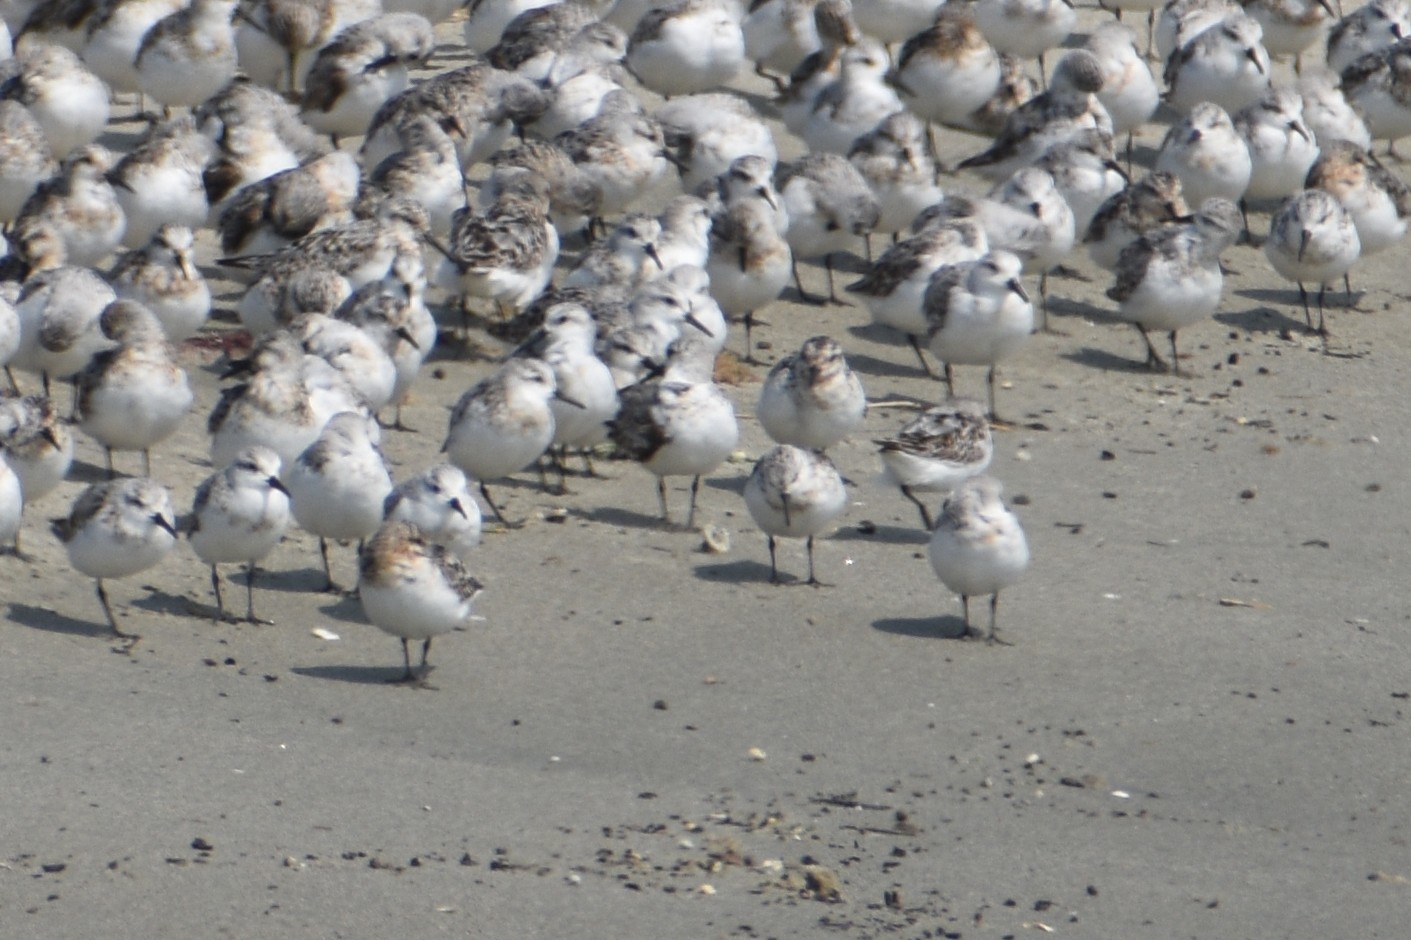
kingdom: Animalia
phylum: Chordata
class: Aves
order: Charadriiformes
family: Scolopacidae
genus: Calidris
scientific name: Calidris alba
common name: Sanderling
